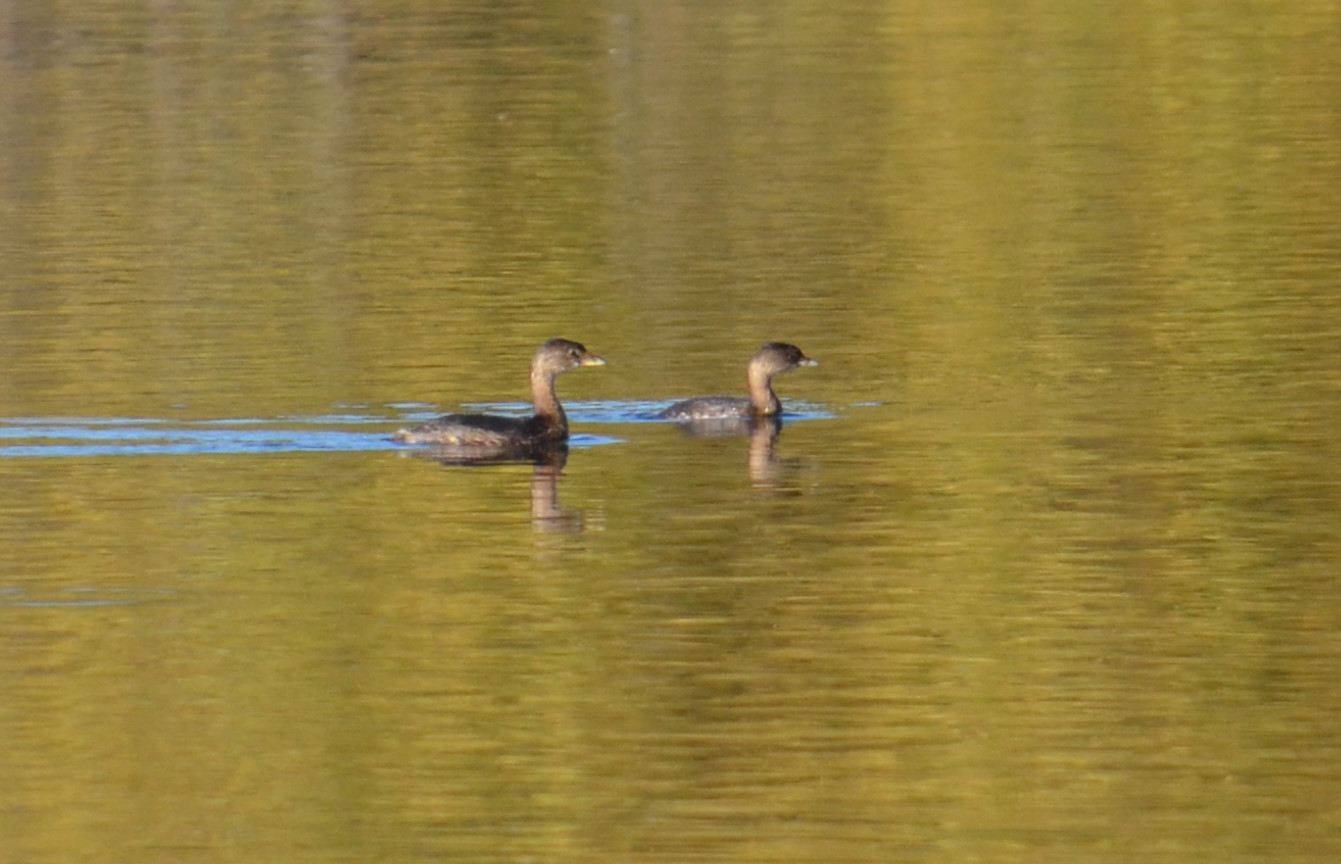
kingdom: Animalia
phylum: Chordata
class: Aves
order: Podicipediformes
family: Podicipedidae
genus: Podilymbus
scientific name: Podilymbus podiceps
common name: Pied-billed grebe
